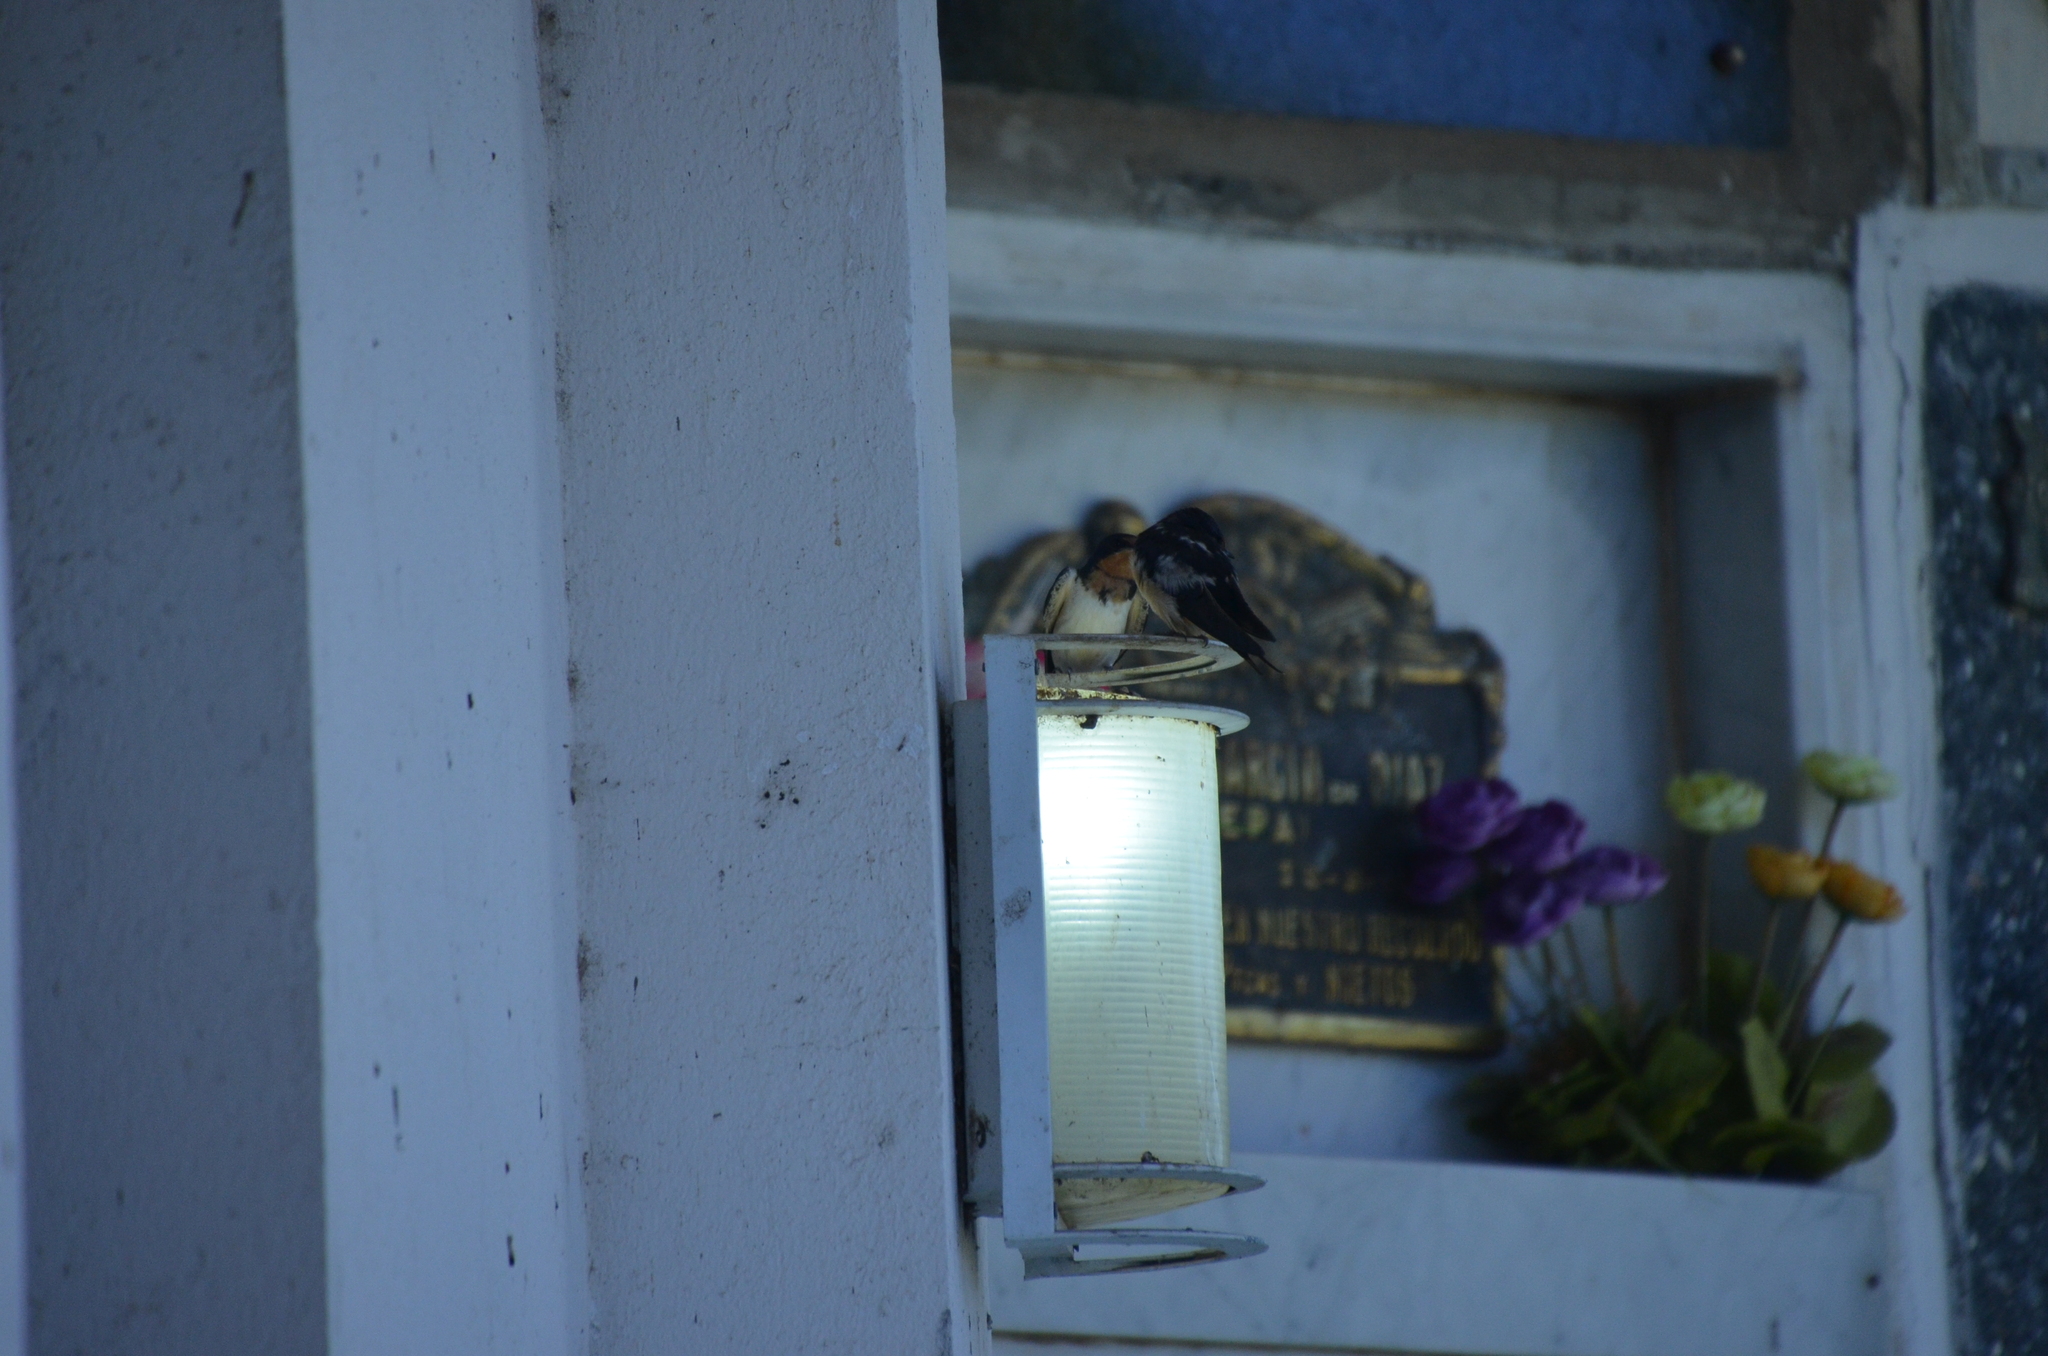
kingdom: Animalia
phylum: Chordata
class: Aves
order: Passeriformes
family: Hirundinidae
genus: Hirundo
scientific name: Hirundo rustica
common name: Barn swallow
